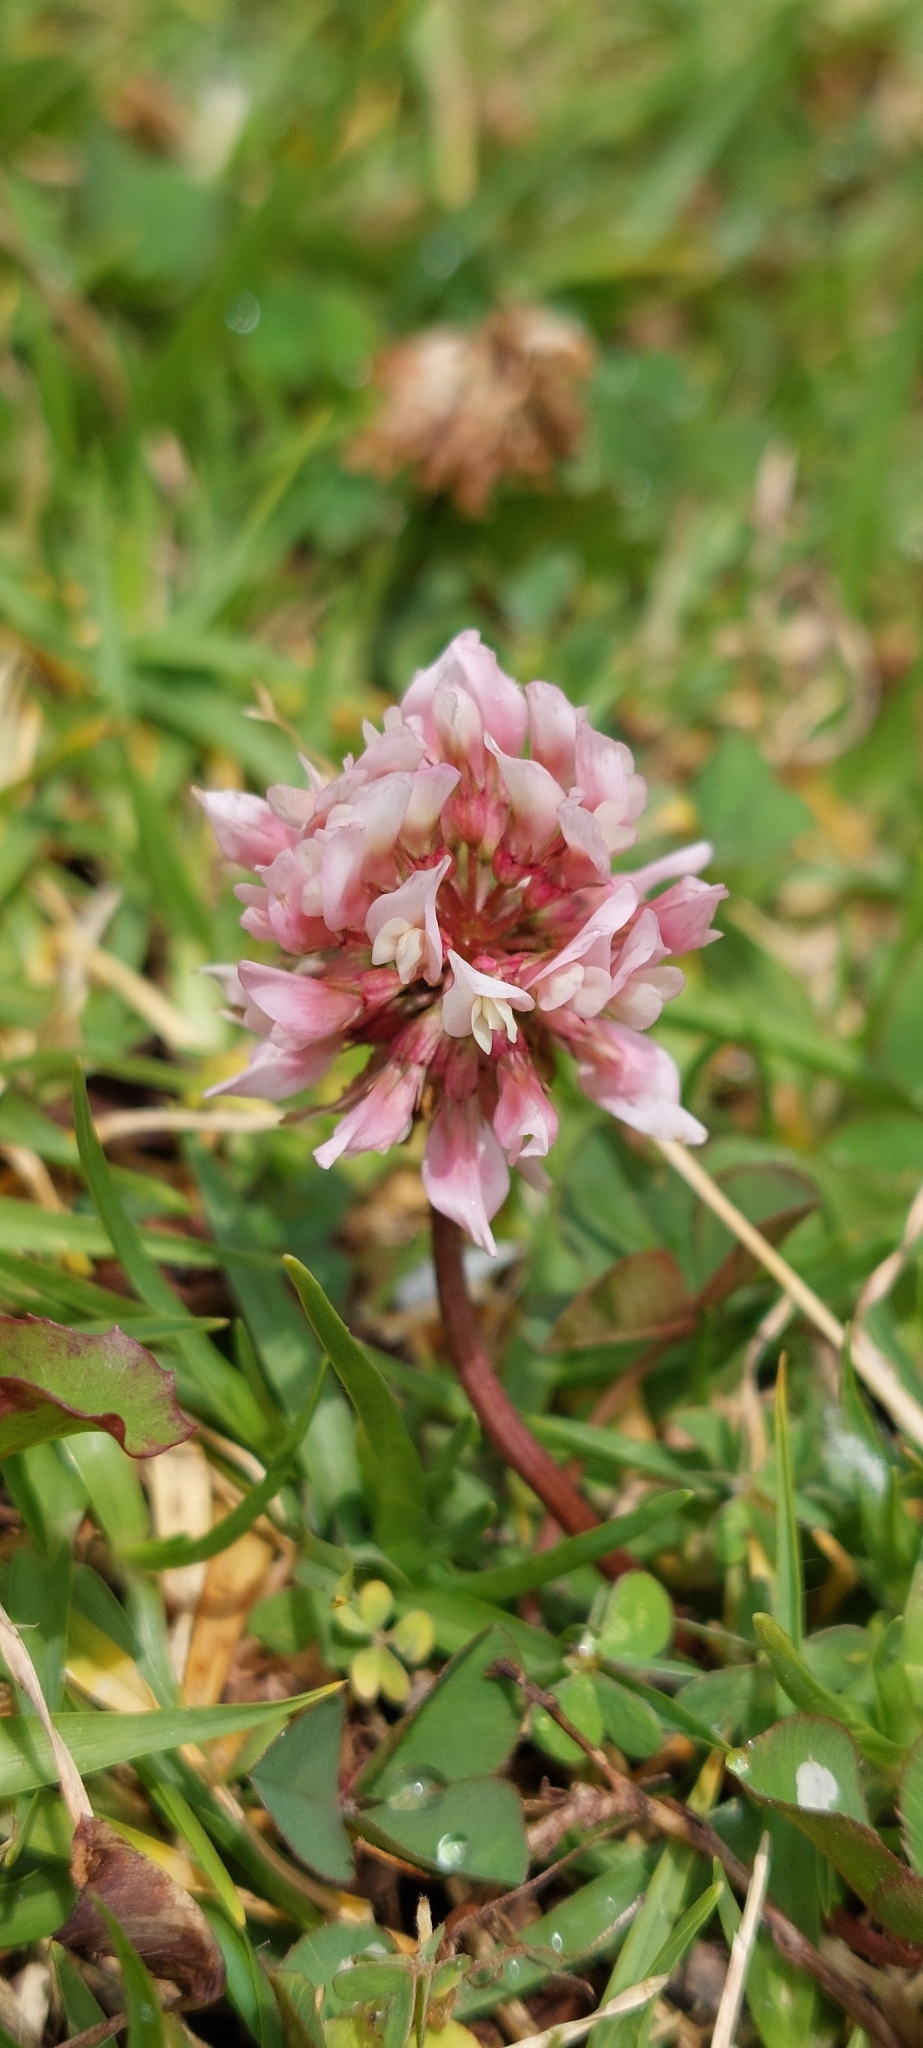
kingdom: Plantae
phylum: Tracheophyta
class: Magnoliopsida
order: Fabales
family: Fabaceae
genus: Trifolium
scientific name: Trifolium repens
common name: White clover
